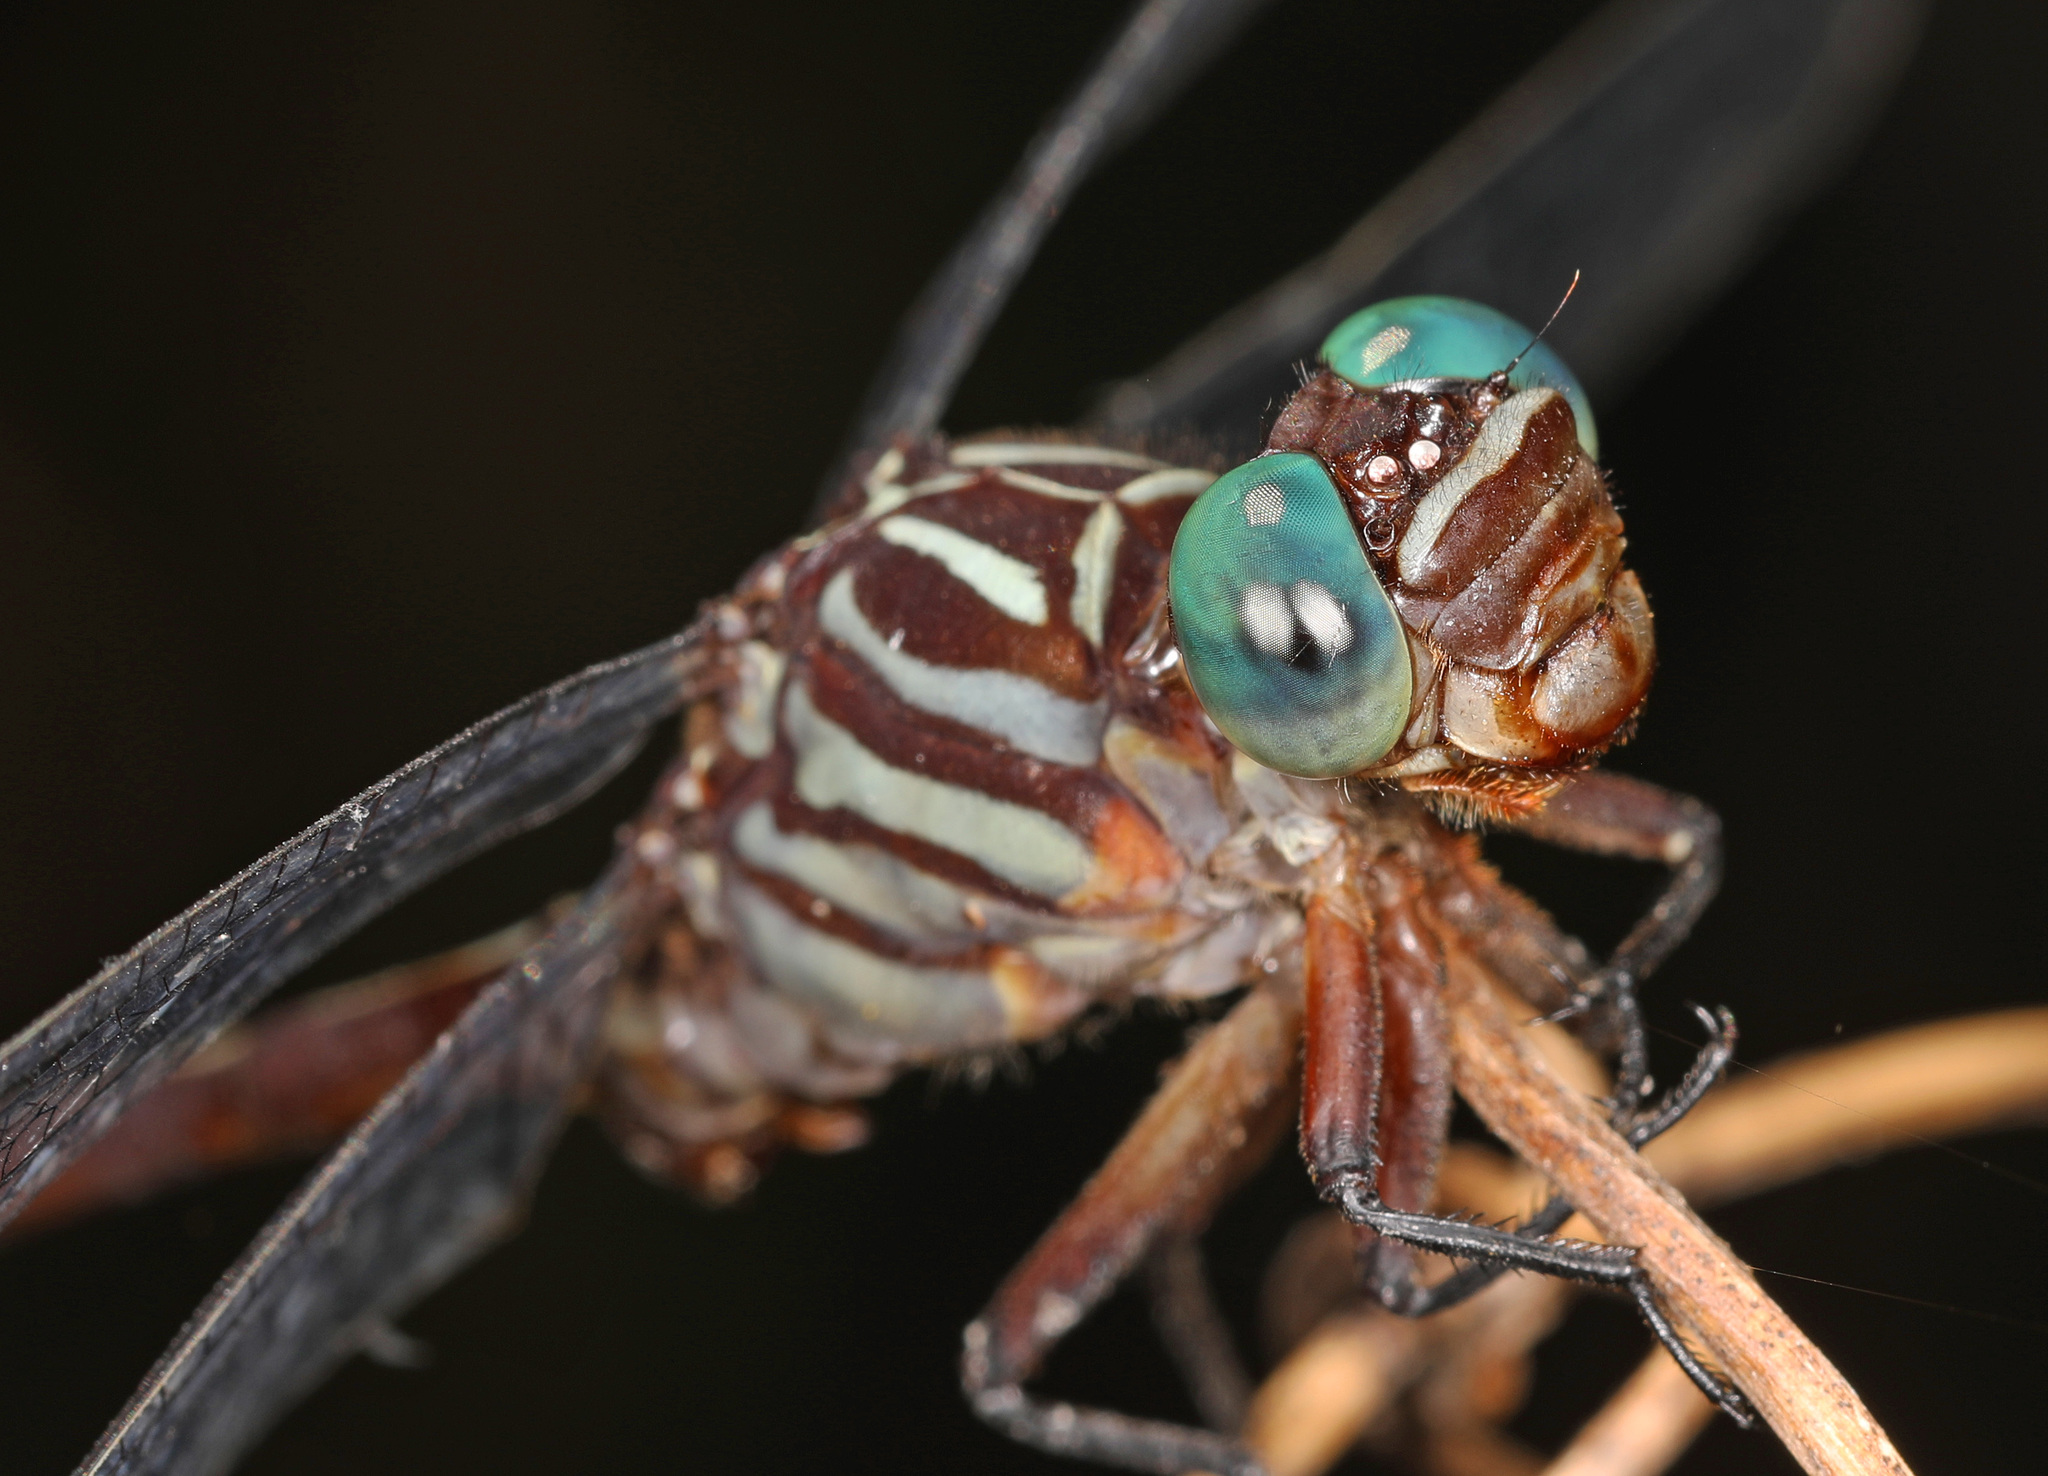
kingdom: Animalia
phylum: Arthropoda
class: Insecta
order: Odonata
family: Gomphidae
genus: Stylurus
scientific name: Stylurus plagiatus
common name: Russet-tipped clubtail
